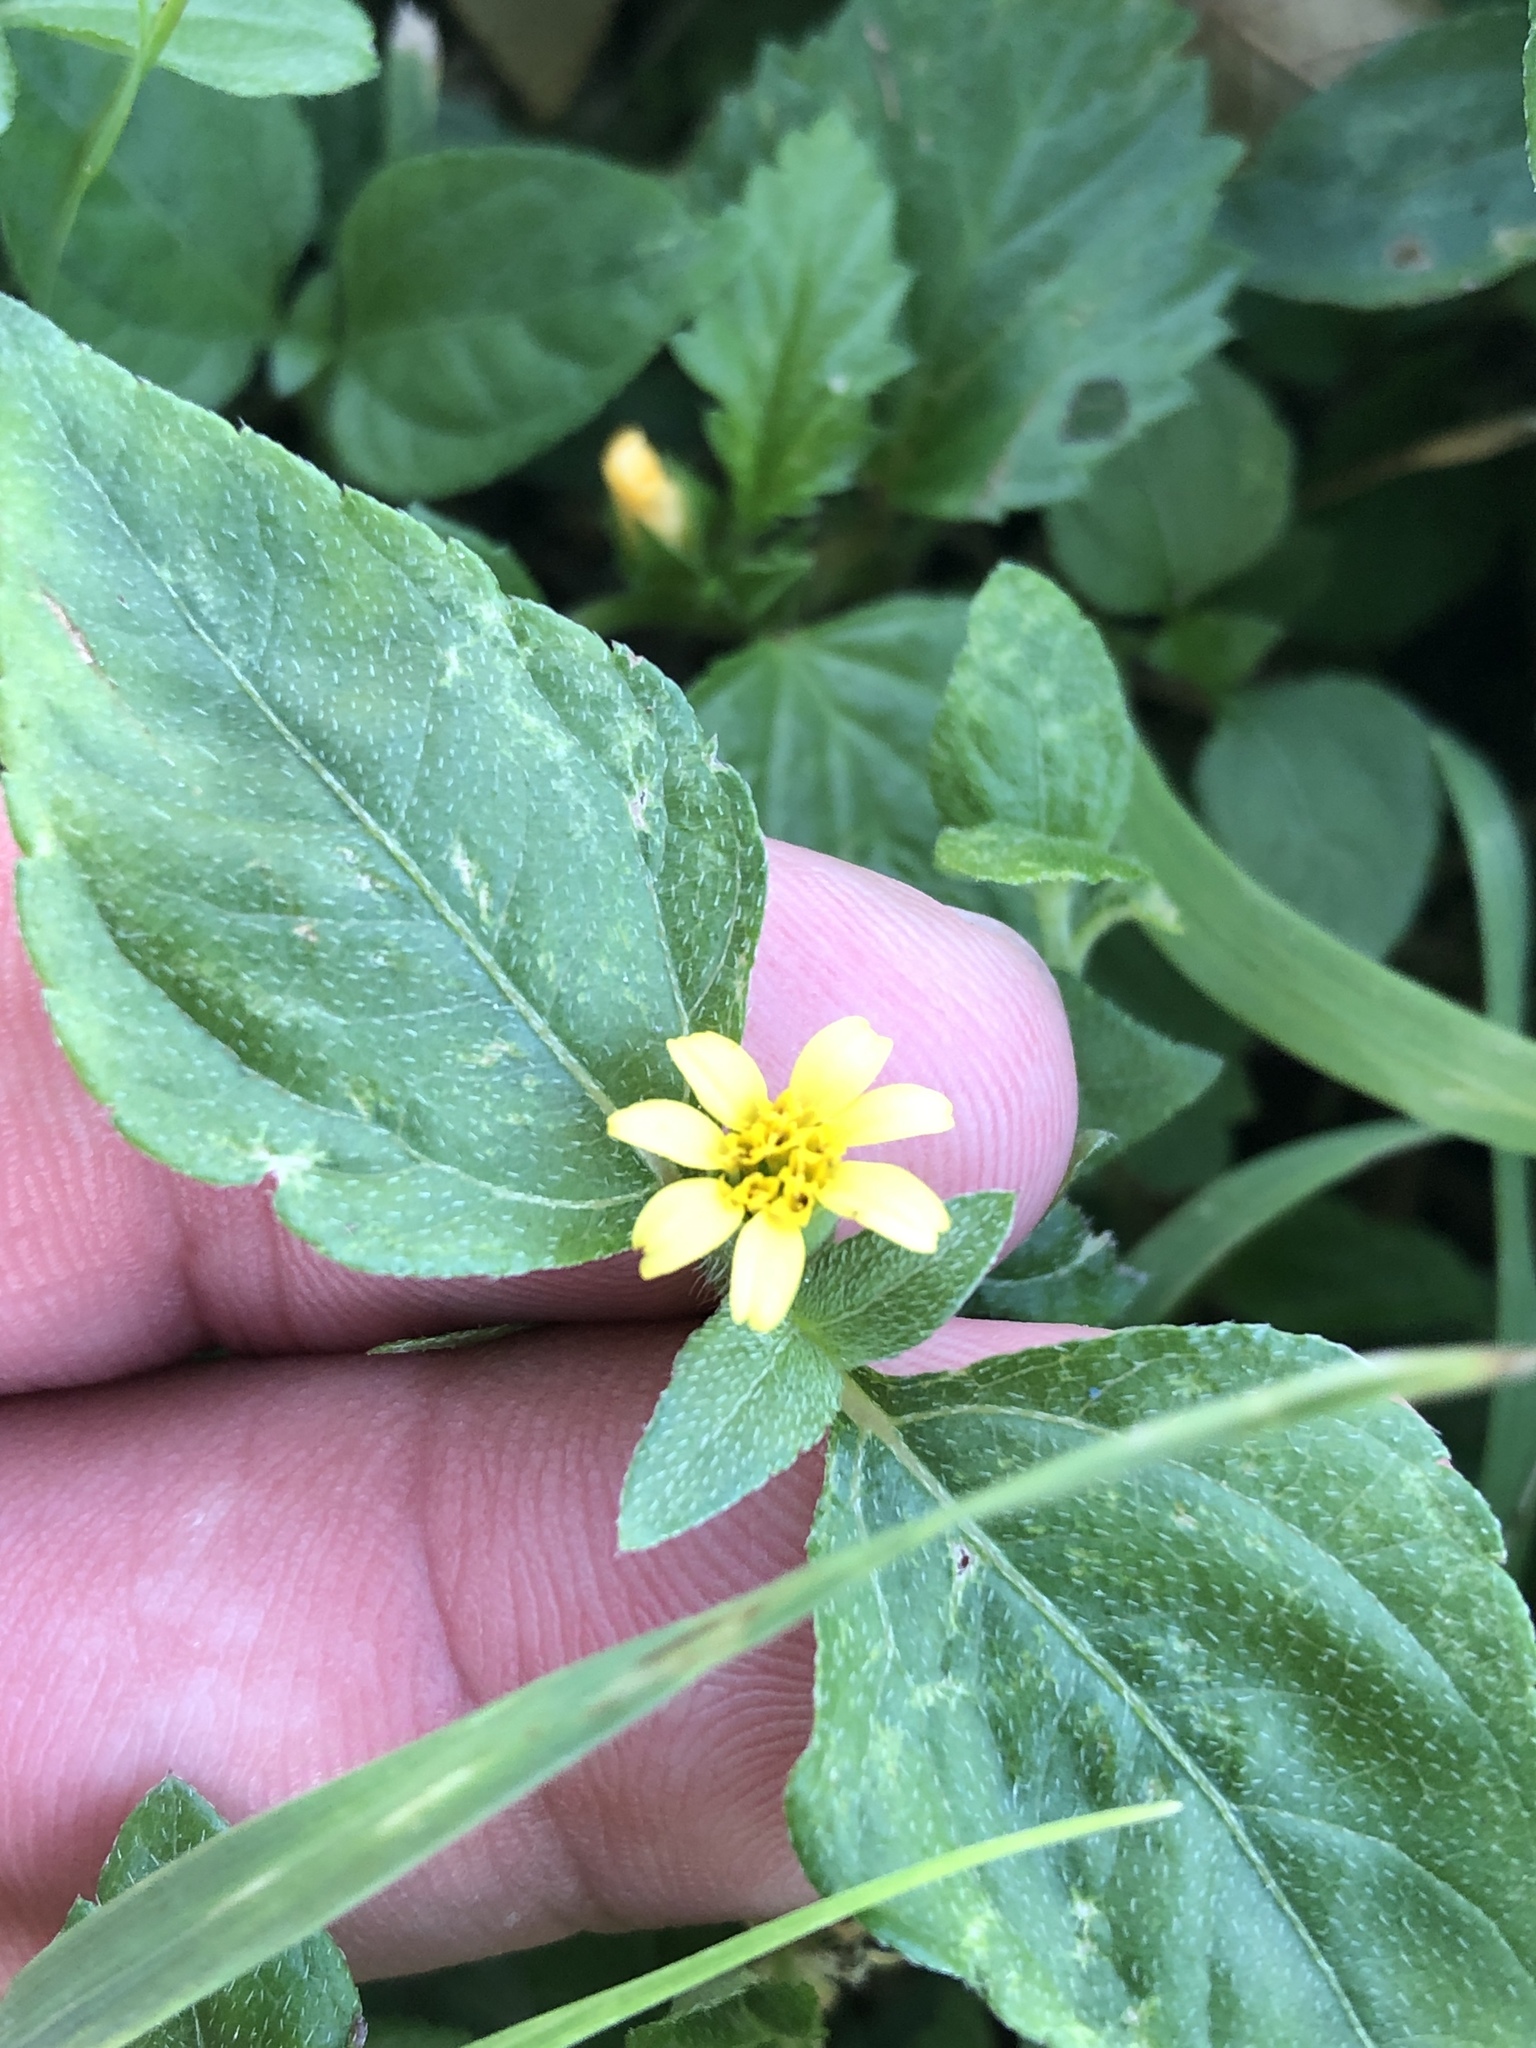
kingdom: Plantae
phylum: Tracheophyta
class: Magnoliopsida
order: Asterales
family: Asteraceae
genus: Calyptocarpus
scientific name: Calyptocarpus vialis
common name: Straggler daisy
